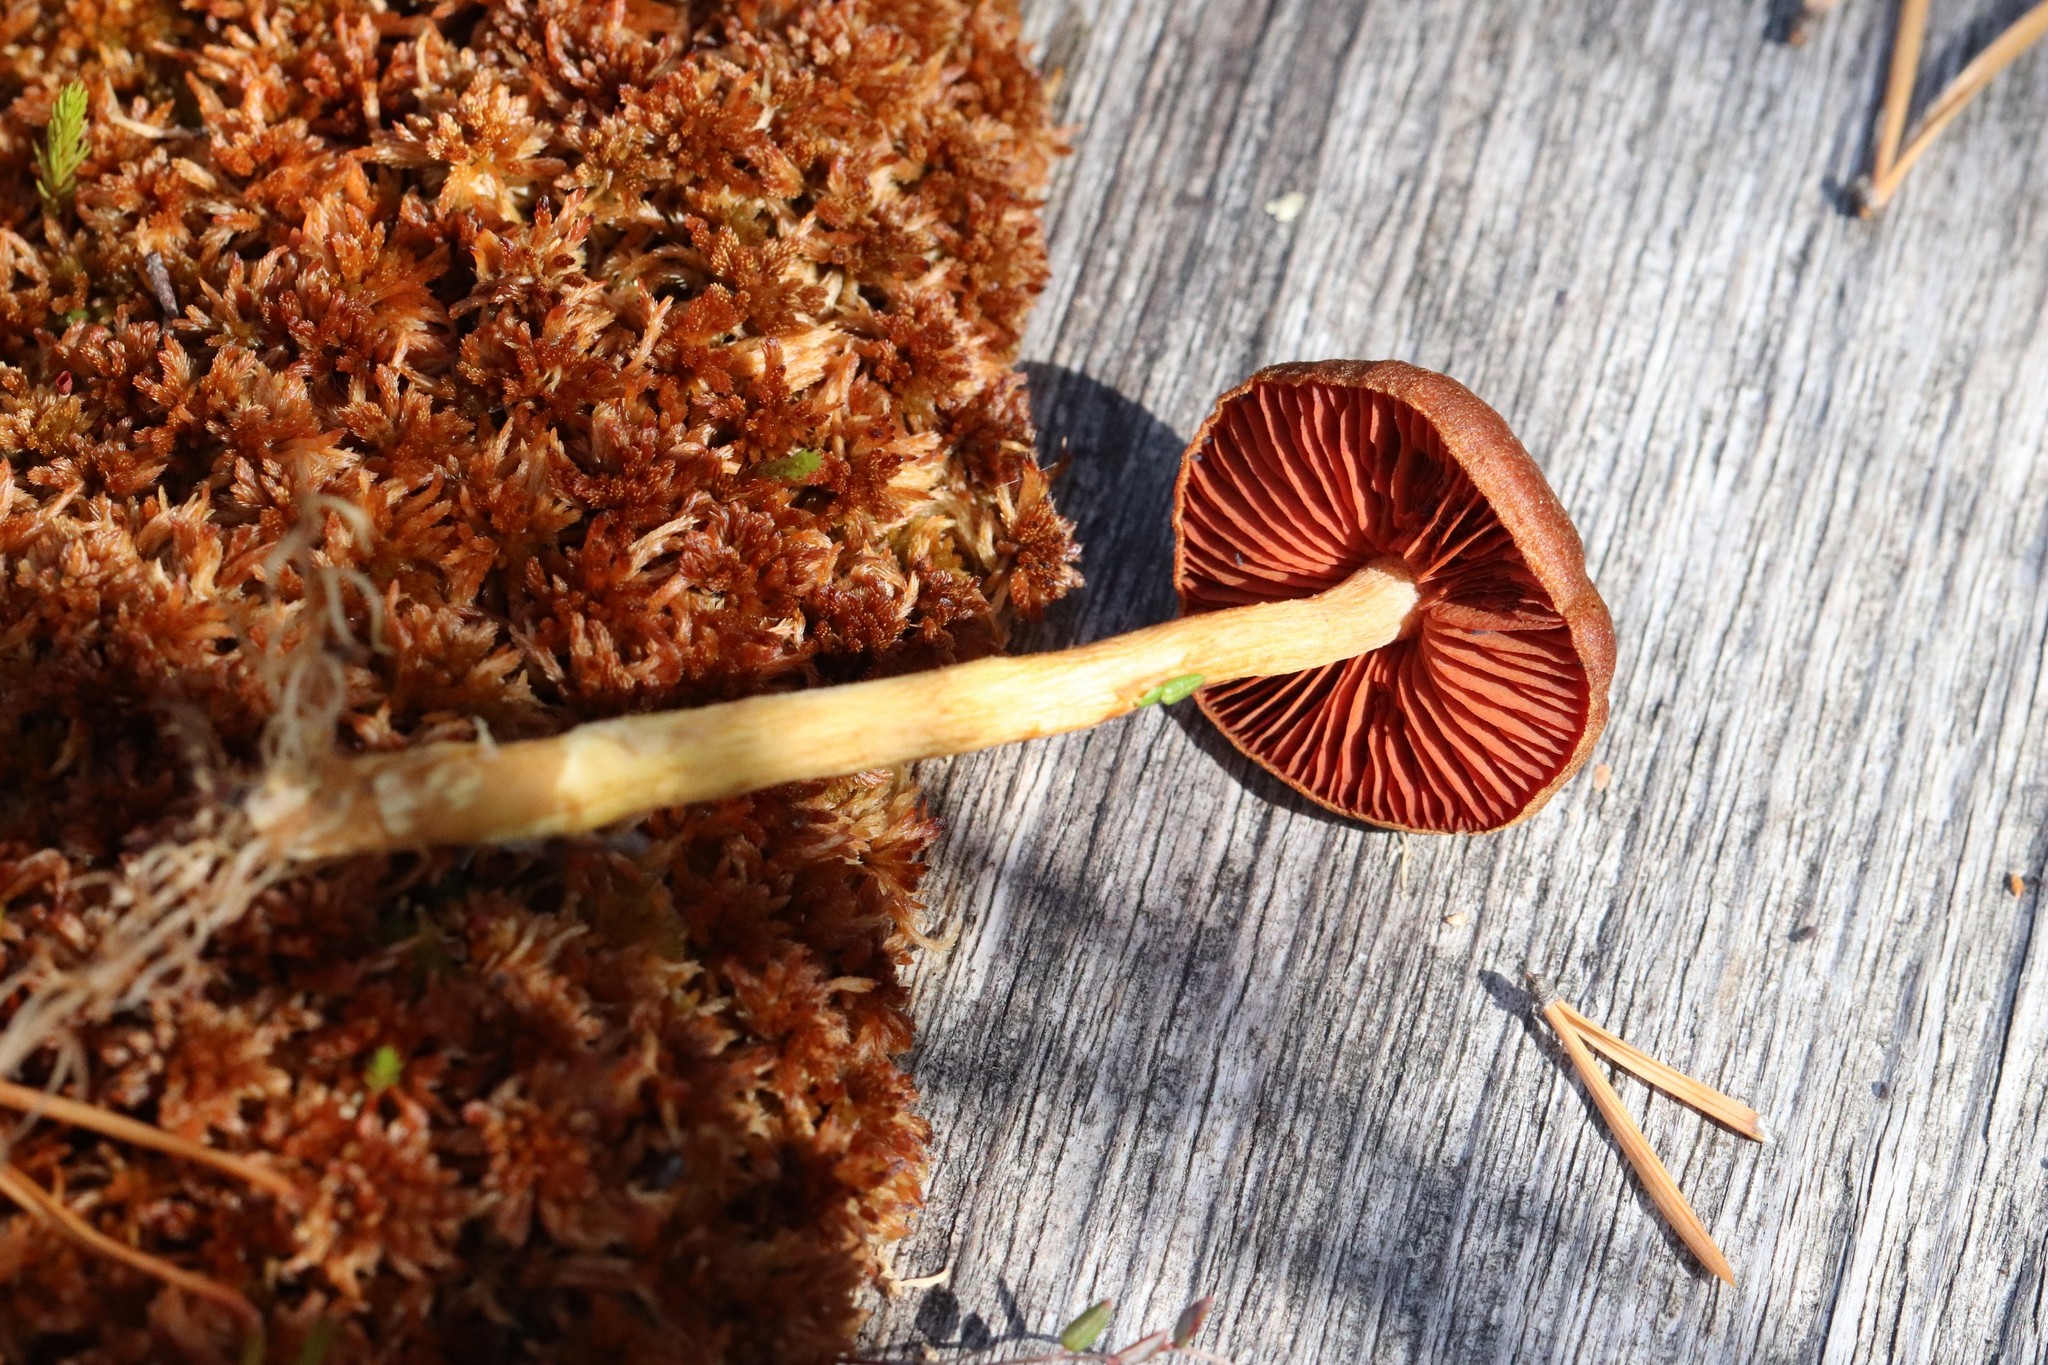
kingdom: Fungi
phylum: Basidiomycota
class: Agaricomycetes
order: Agaricales
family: Cortinariaceae
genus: Cortinarius
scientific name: Cortinarius semisanguineus
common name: Surprise webcap
